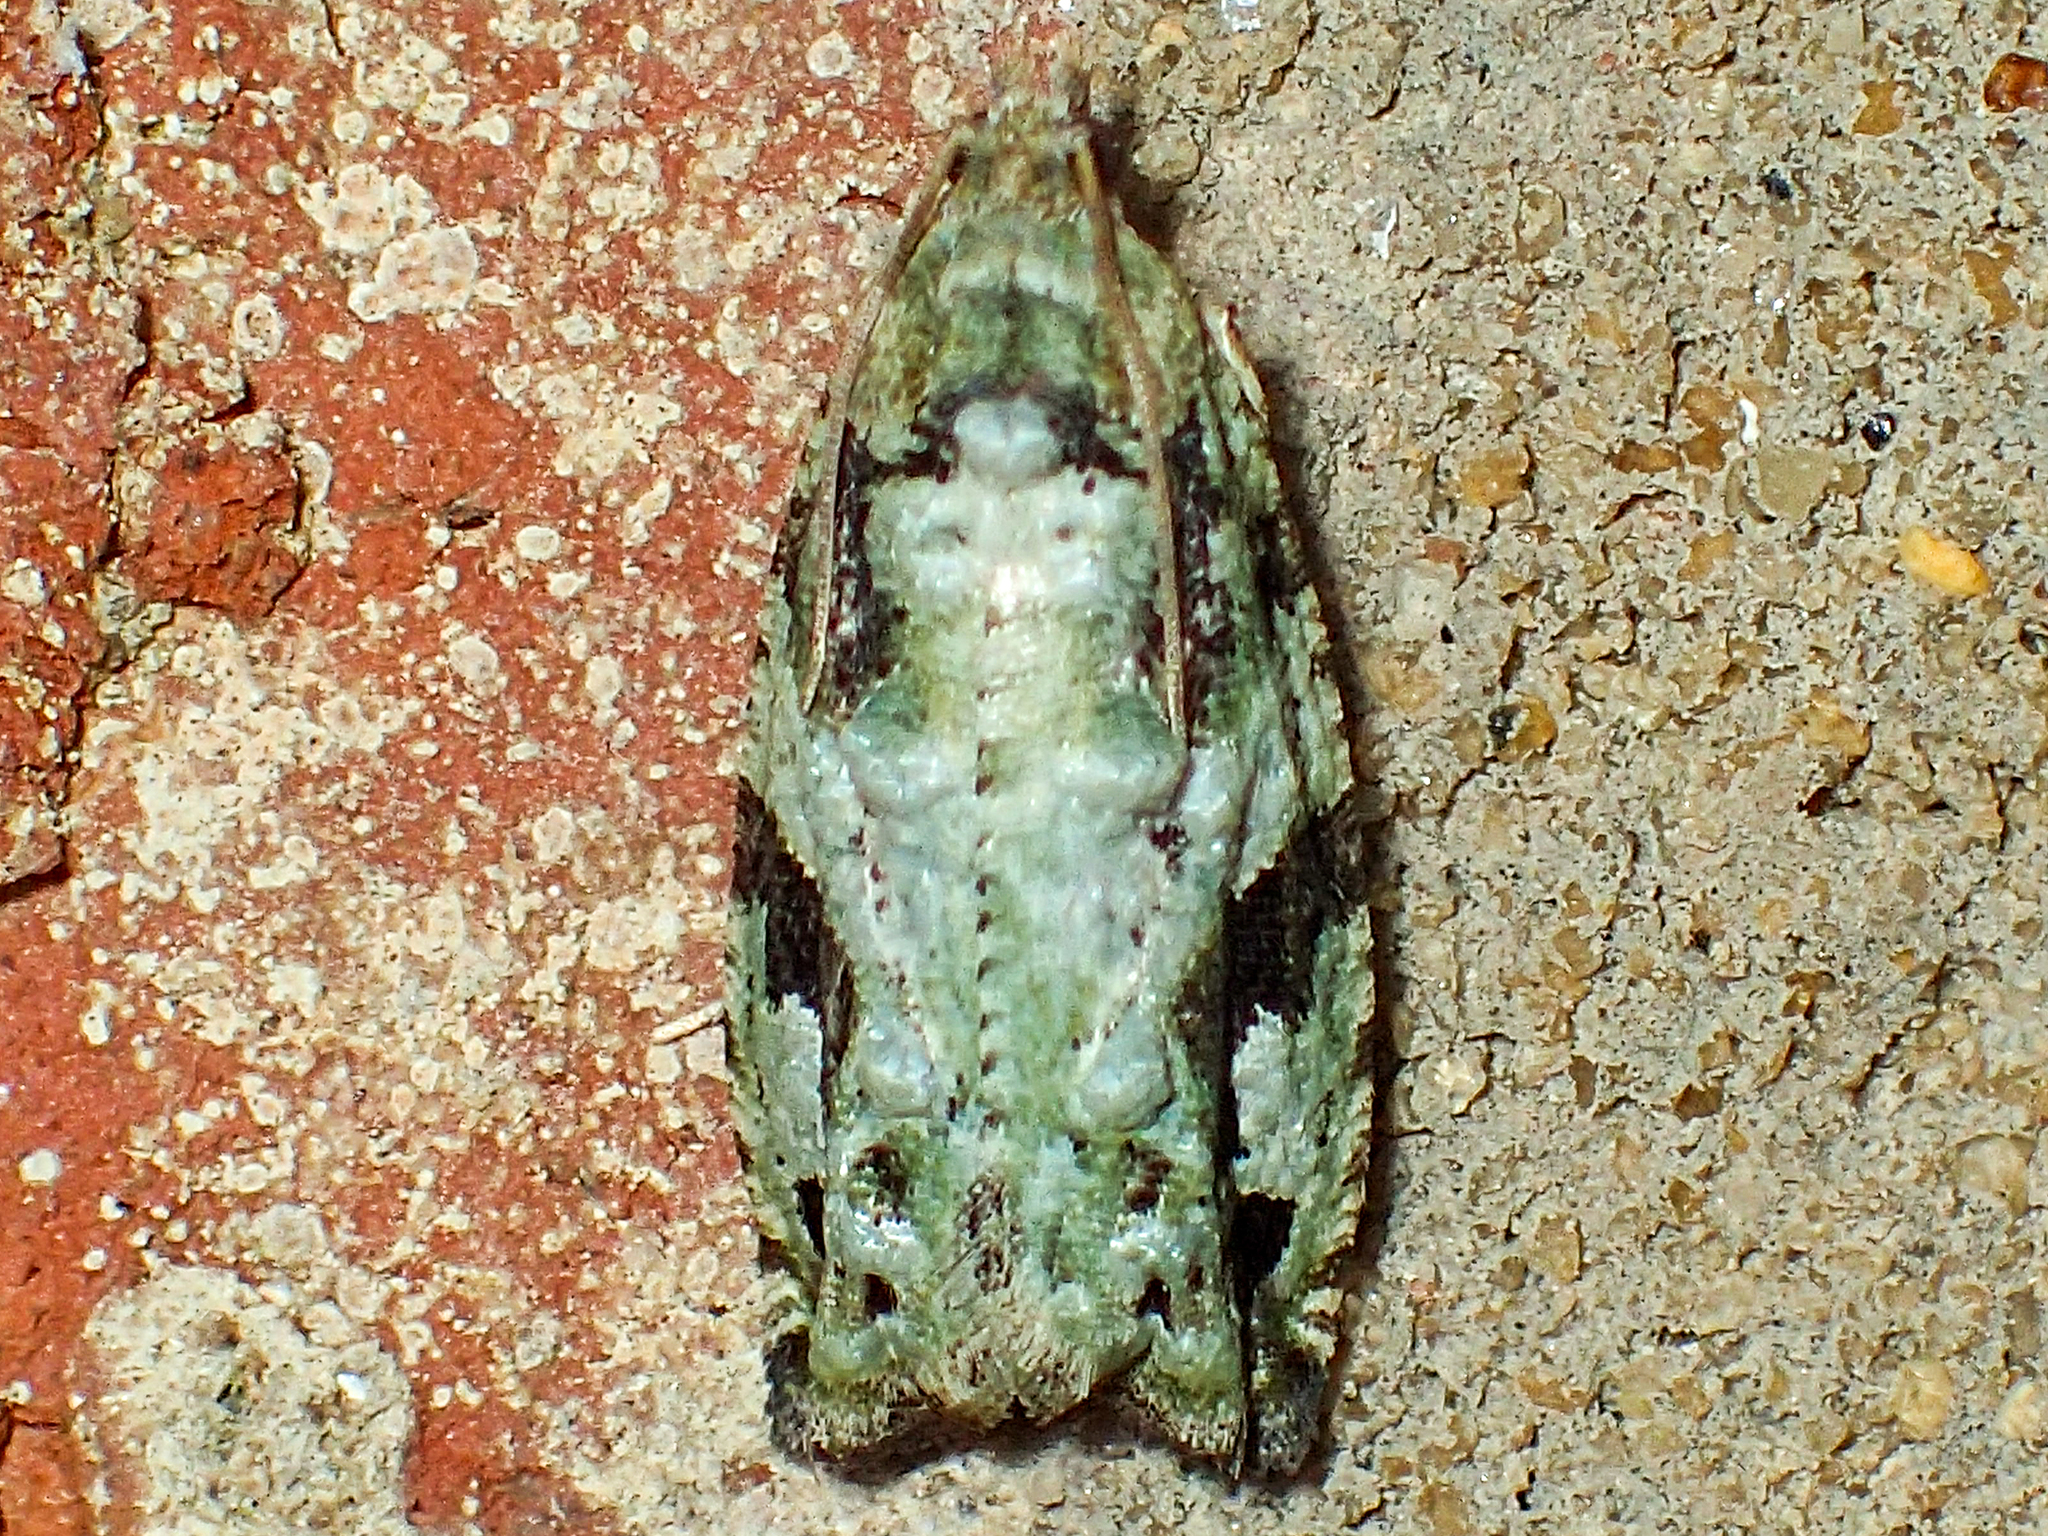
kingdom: Animalia
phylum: Arthropoda
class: Insecta
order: Lepidoptera
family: Tortricidae
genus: Proteoteras
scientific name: Proteoteras moffatiana
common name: Maple bud borer moth
